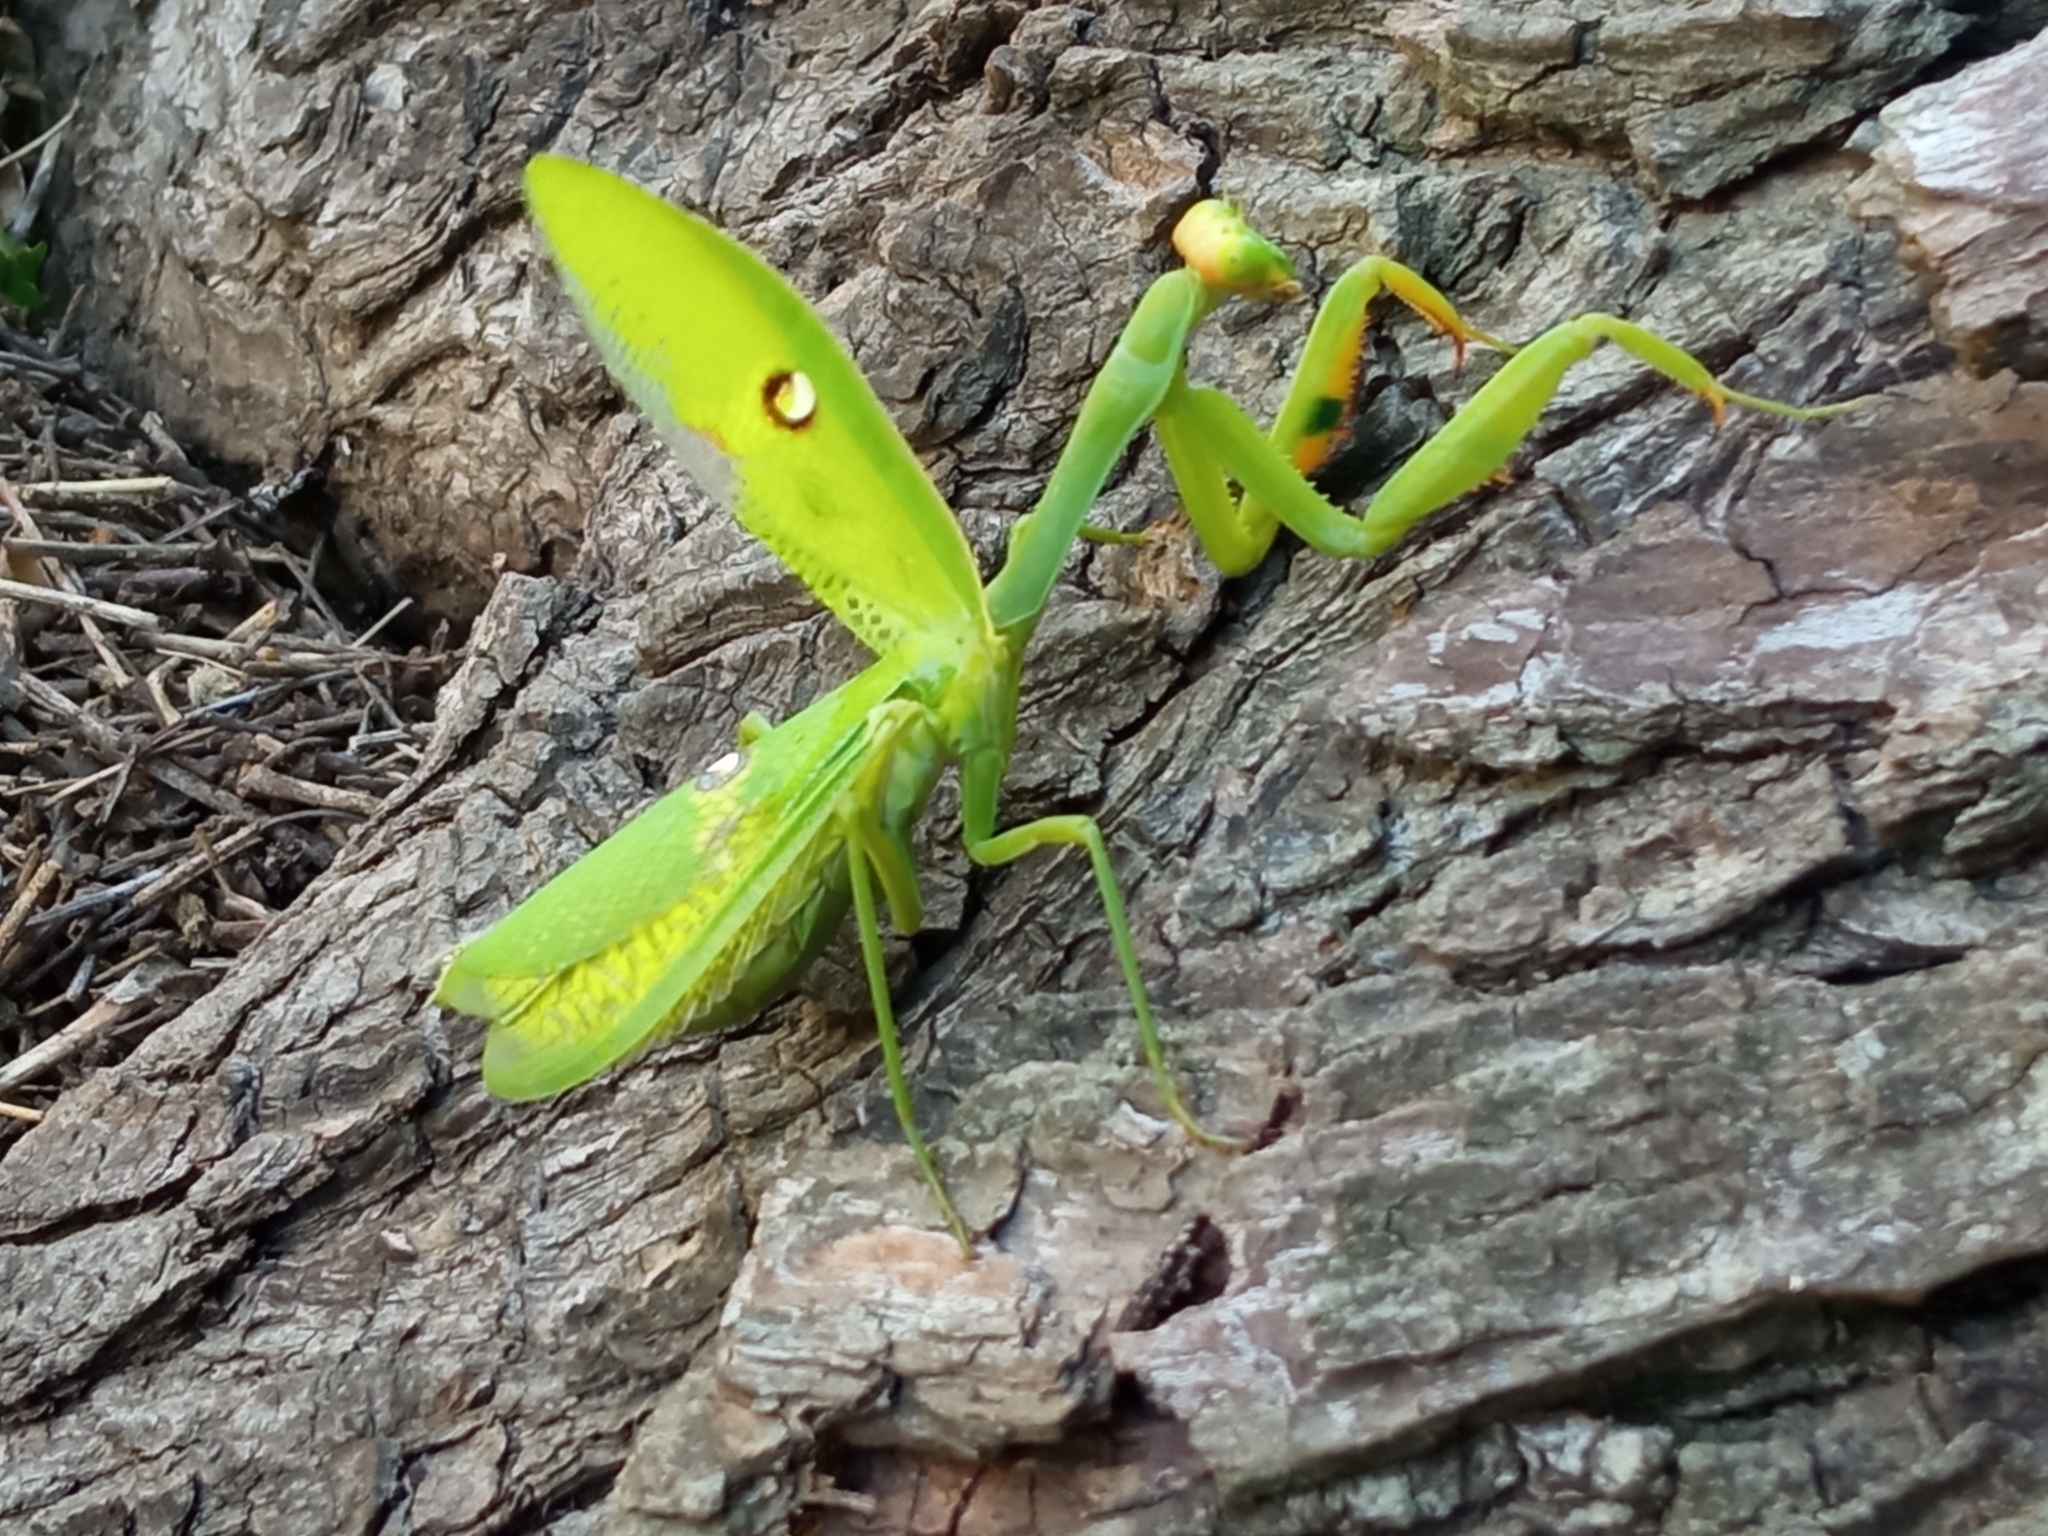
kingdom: Animalia
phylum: Arthropoda
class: Insecta
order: Mantodea
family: Mantidae
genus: Stagmatoptera
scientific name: Stagmatoptera hyaloptera
